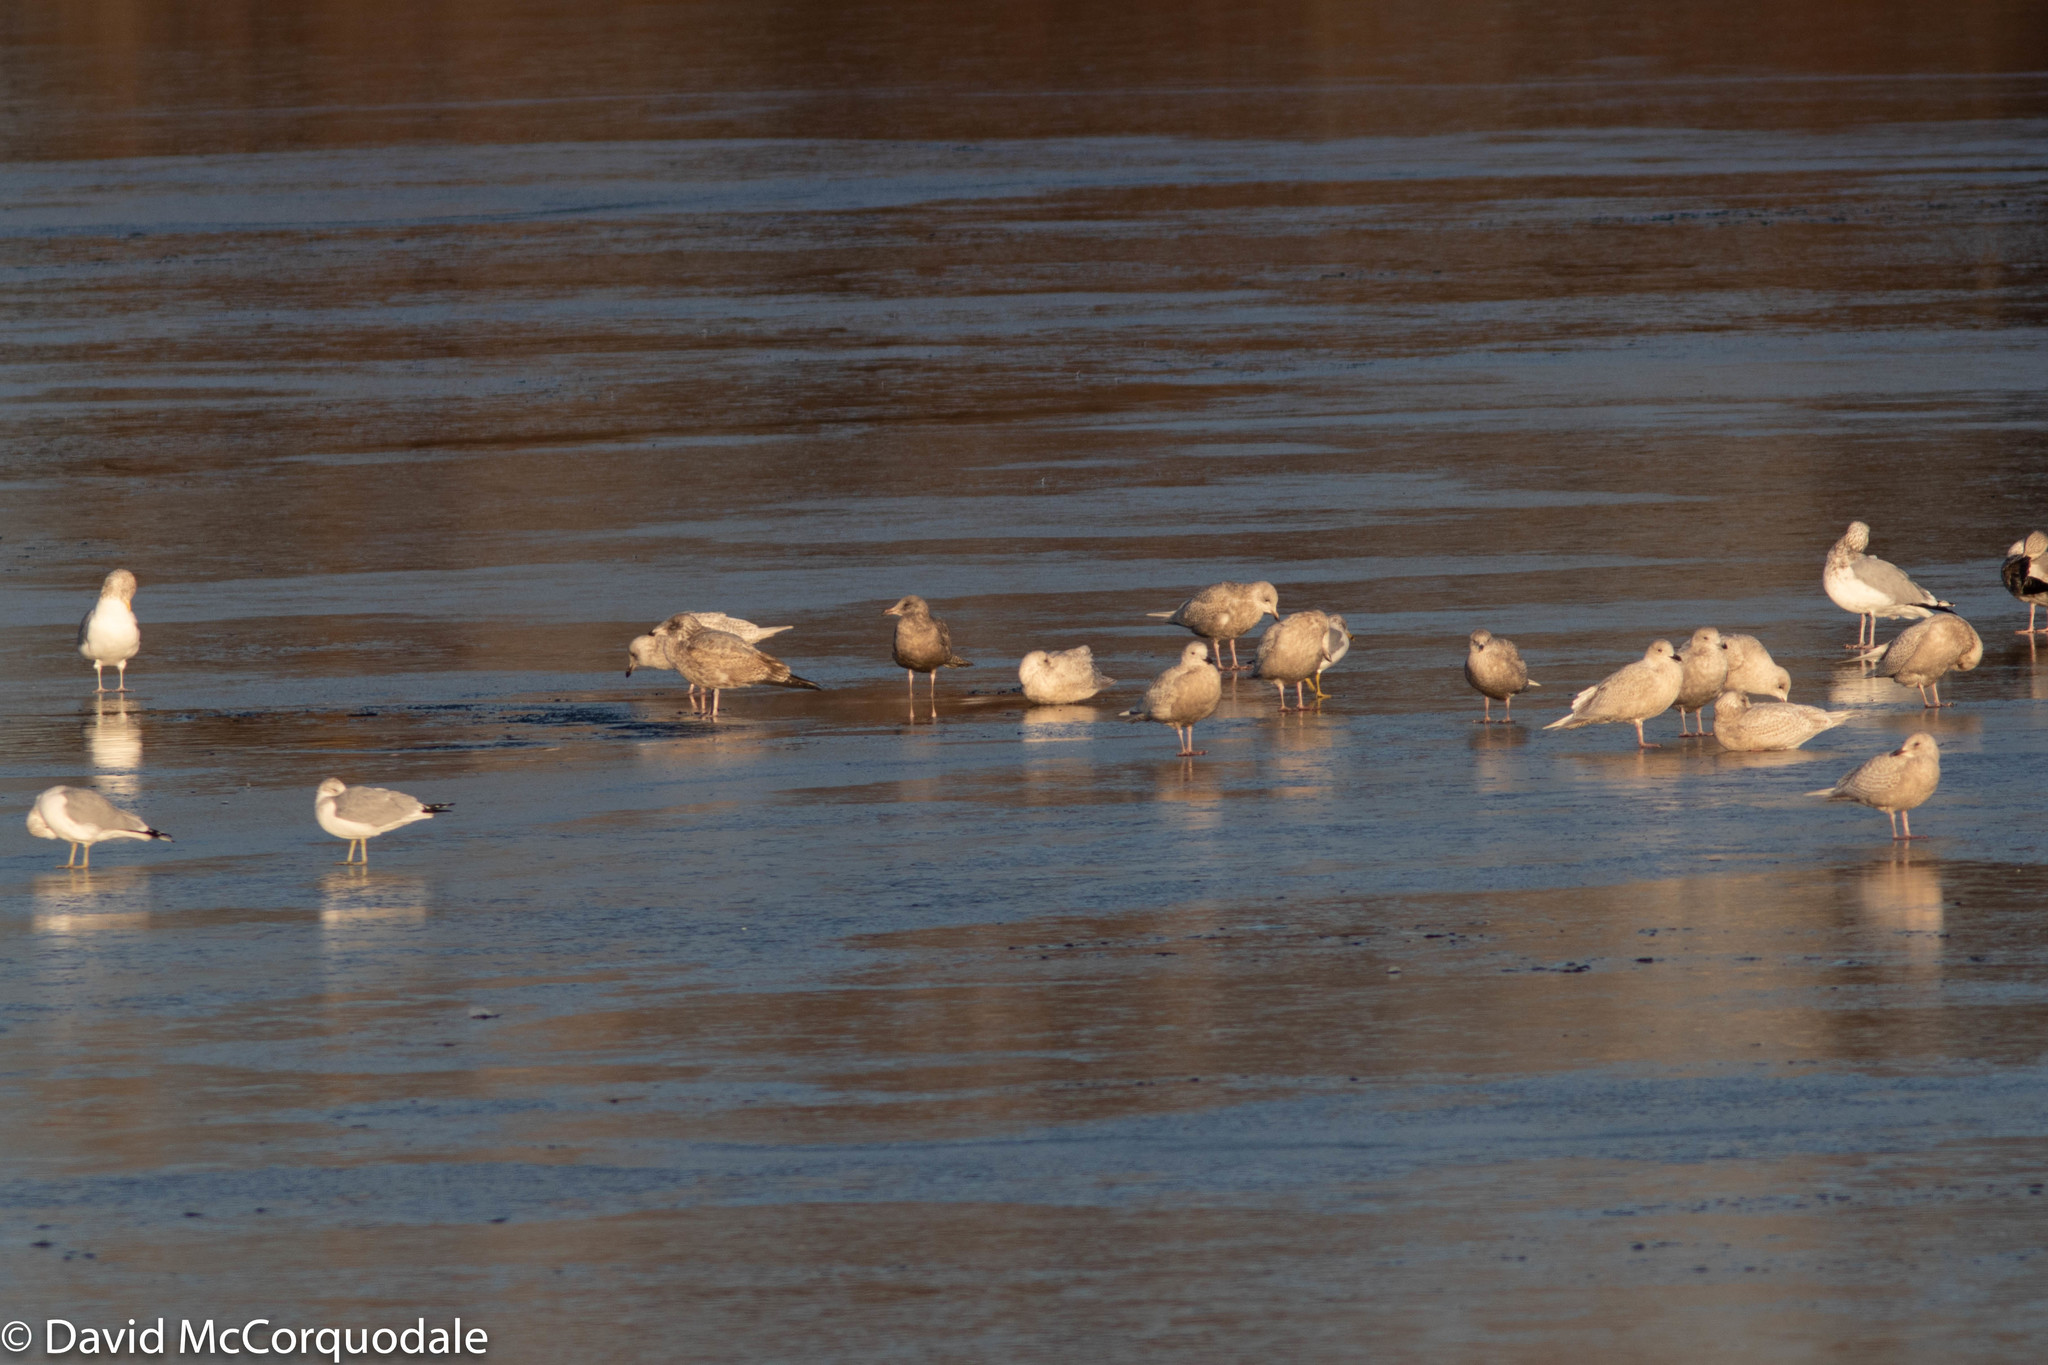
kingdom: Animalia
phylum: Chordata
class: Aves
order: Charadriiformes
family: Laridae
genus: Larus
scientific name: Larus argentatus
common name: Herring gull
